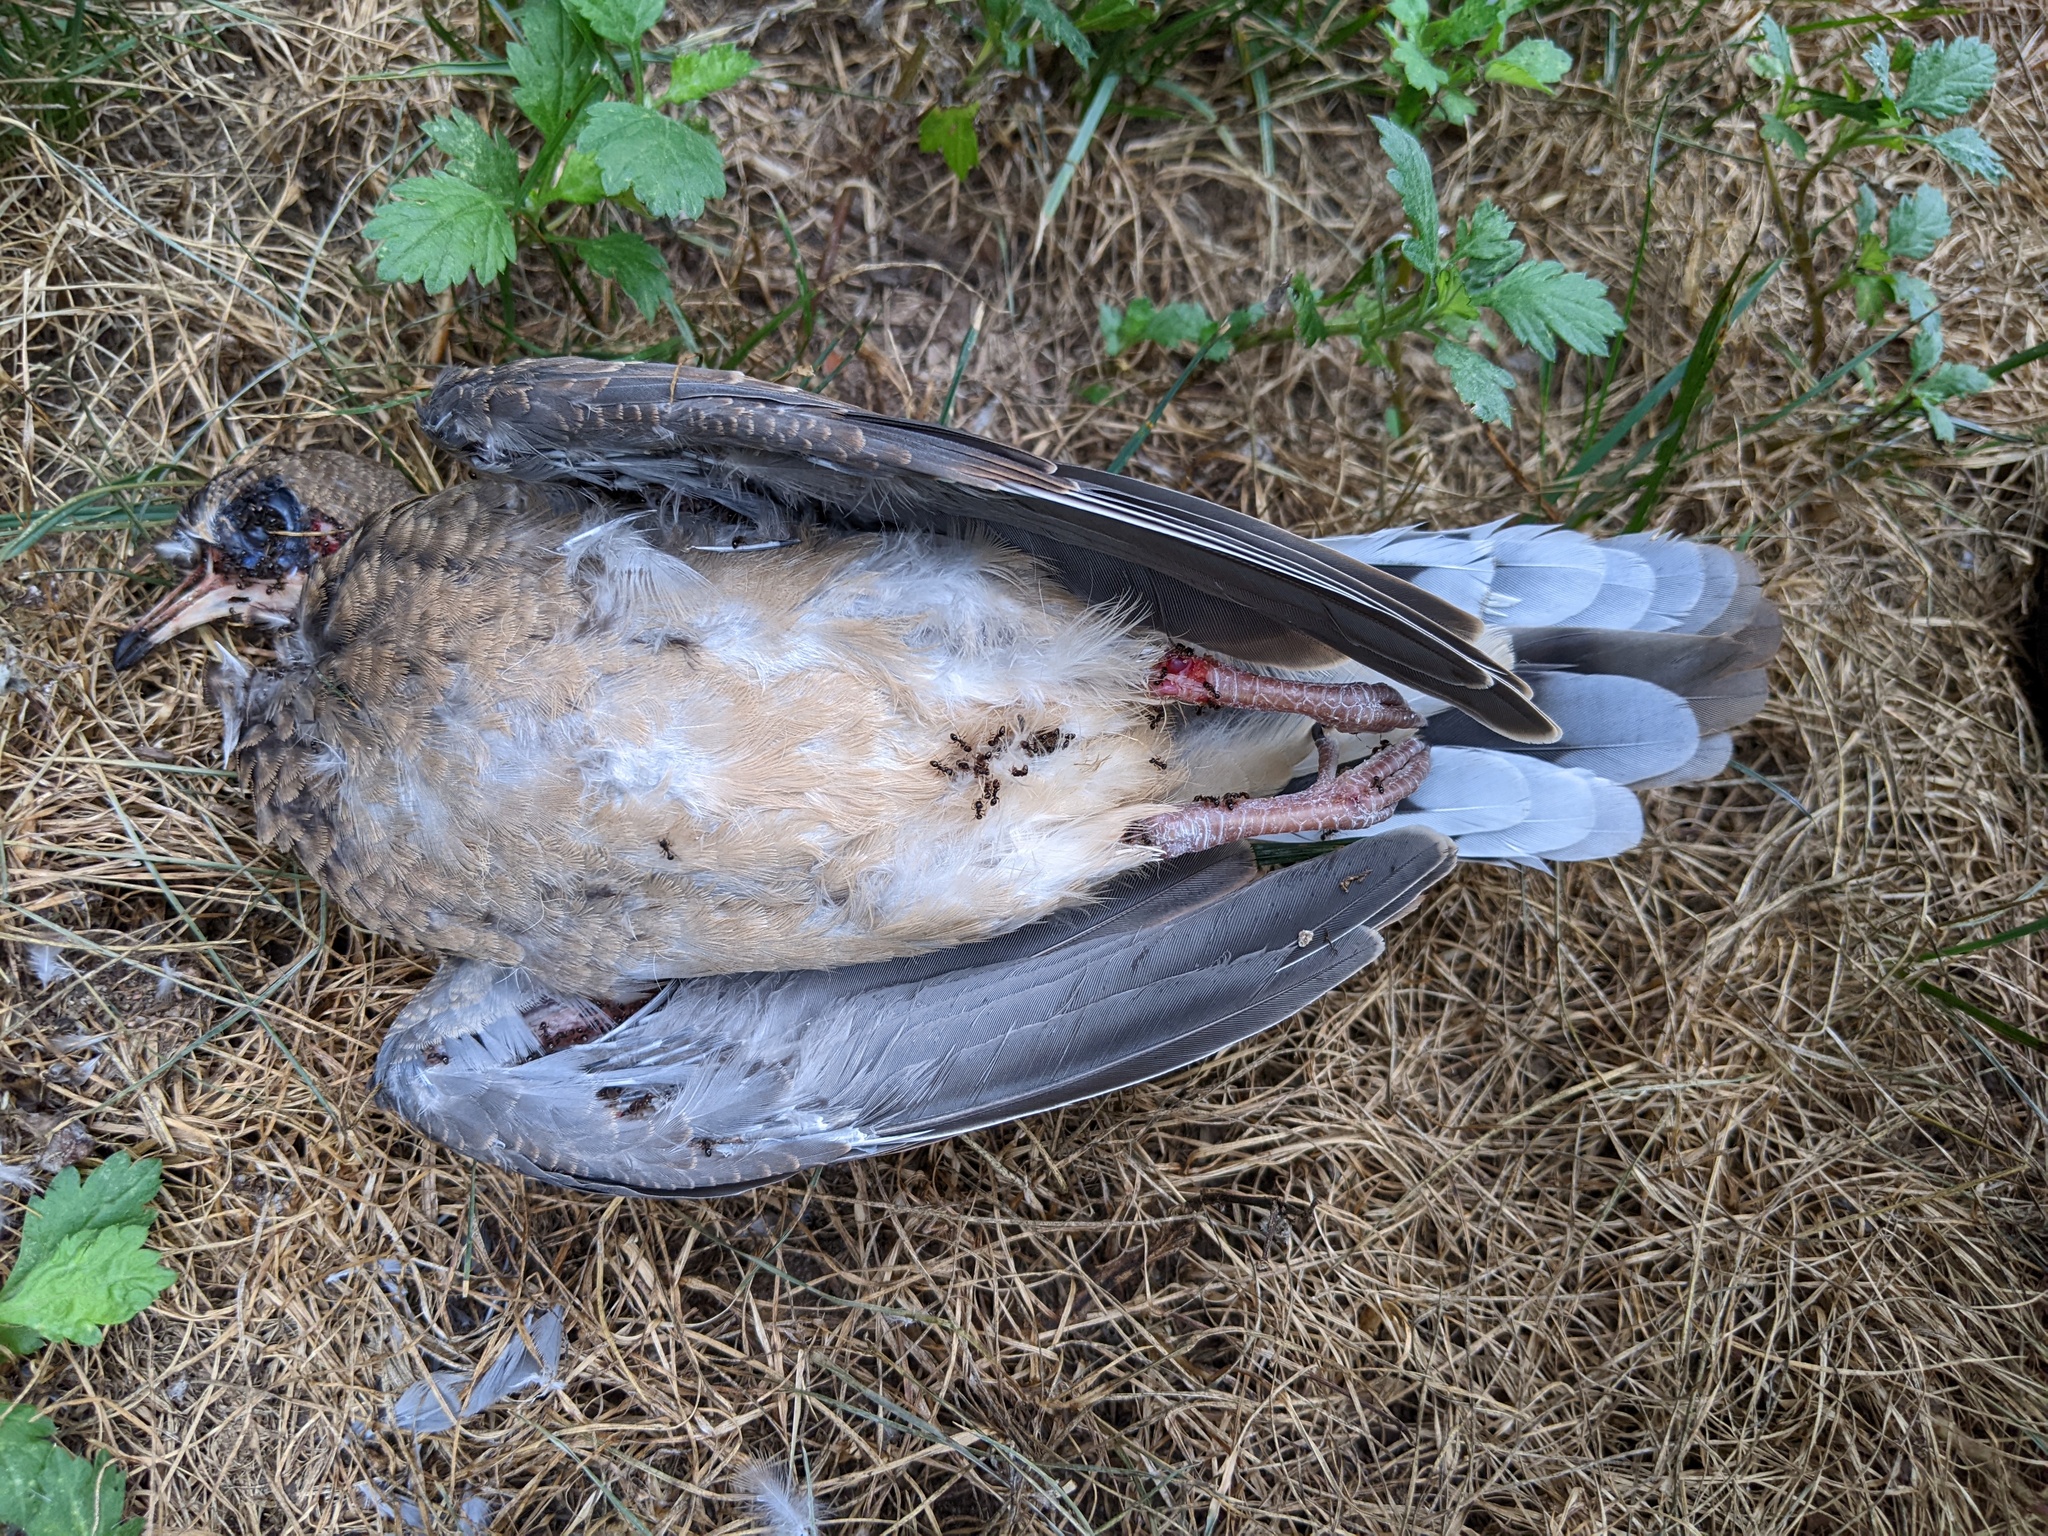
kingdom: Animalia
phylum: Chordata
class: Aves
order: Columbiformes
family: Columbidae
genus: Zenaida
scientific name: Zenaida macroura
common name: Mourning dove
